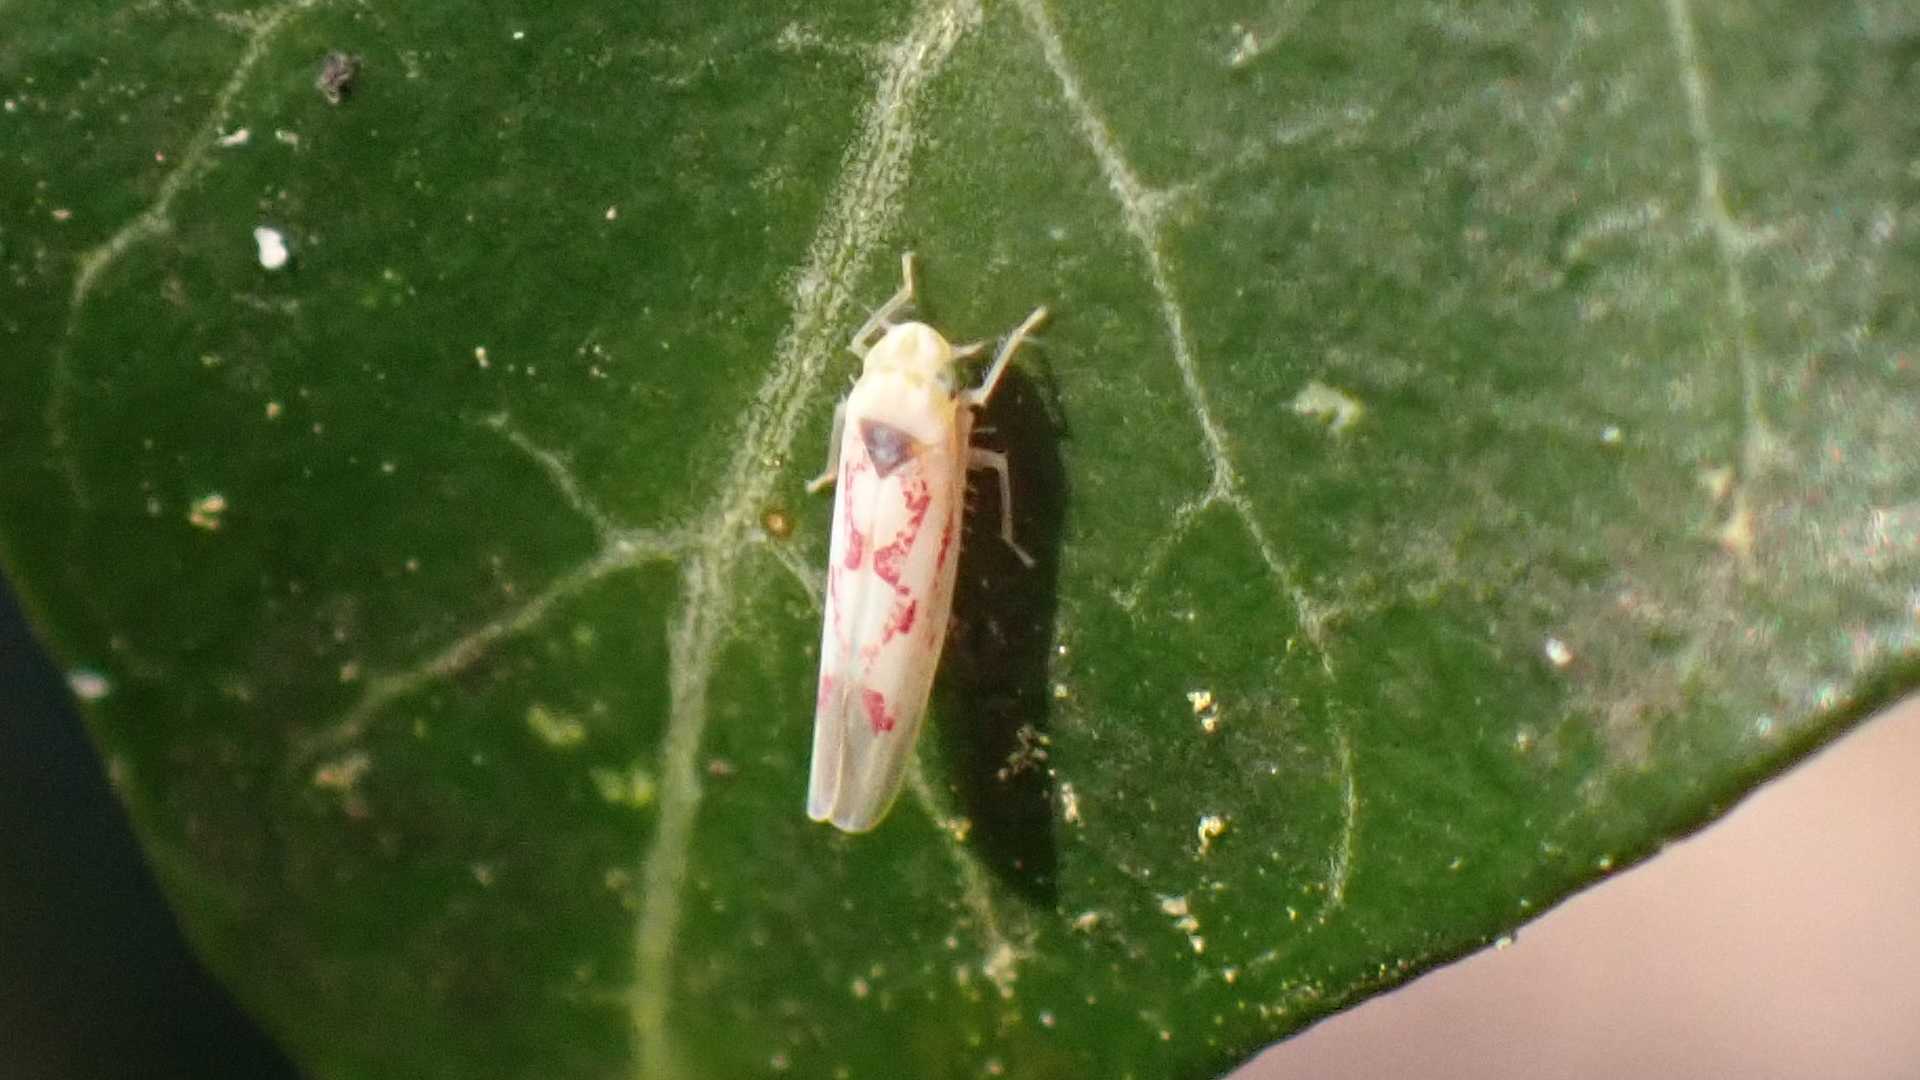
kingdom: Animalia
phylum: Arthropoda
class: Insecta
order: Hemiptera
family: Cicadellidae
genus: Zygina
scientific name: Zygina flammigera
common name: Leafhopper
